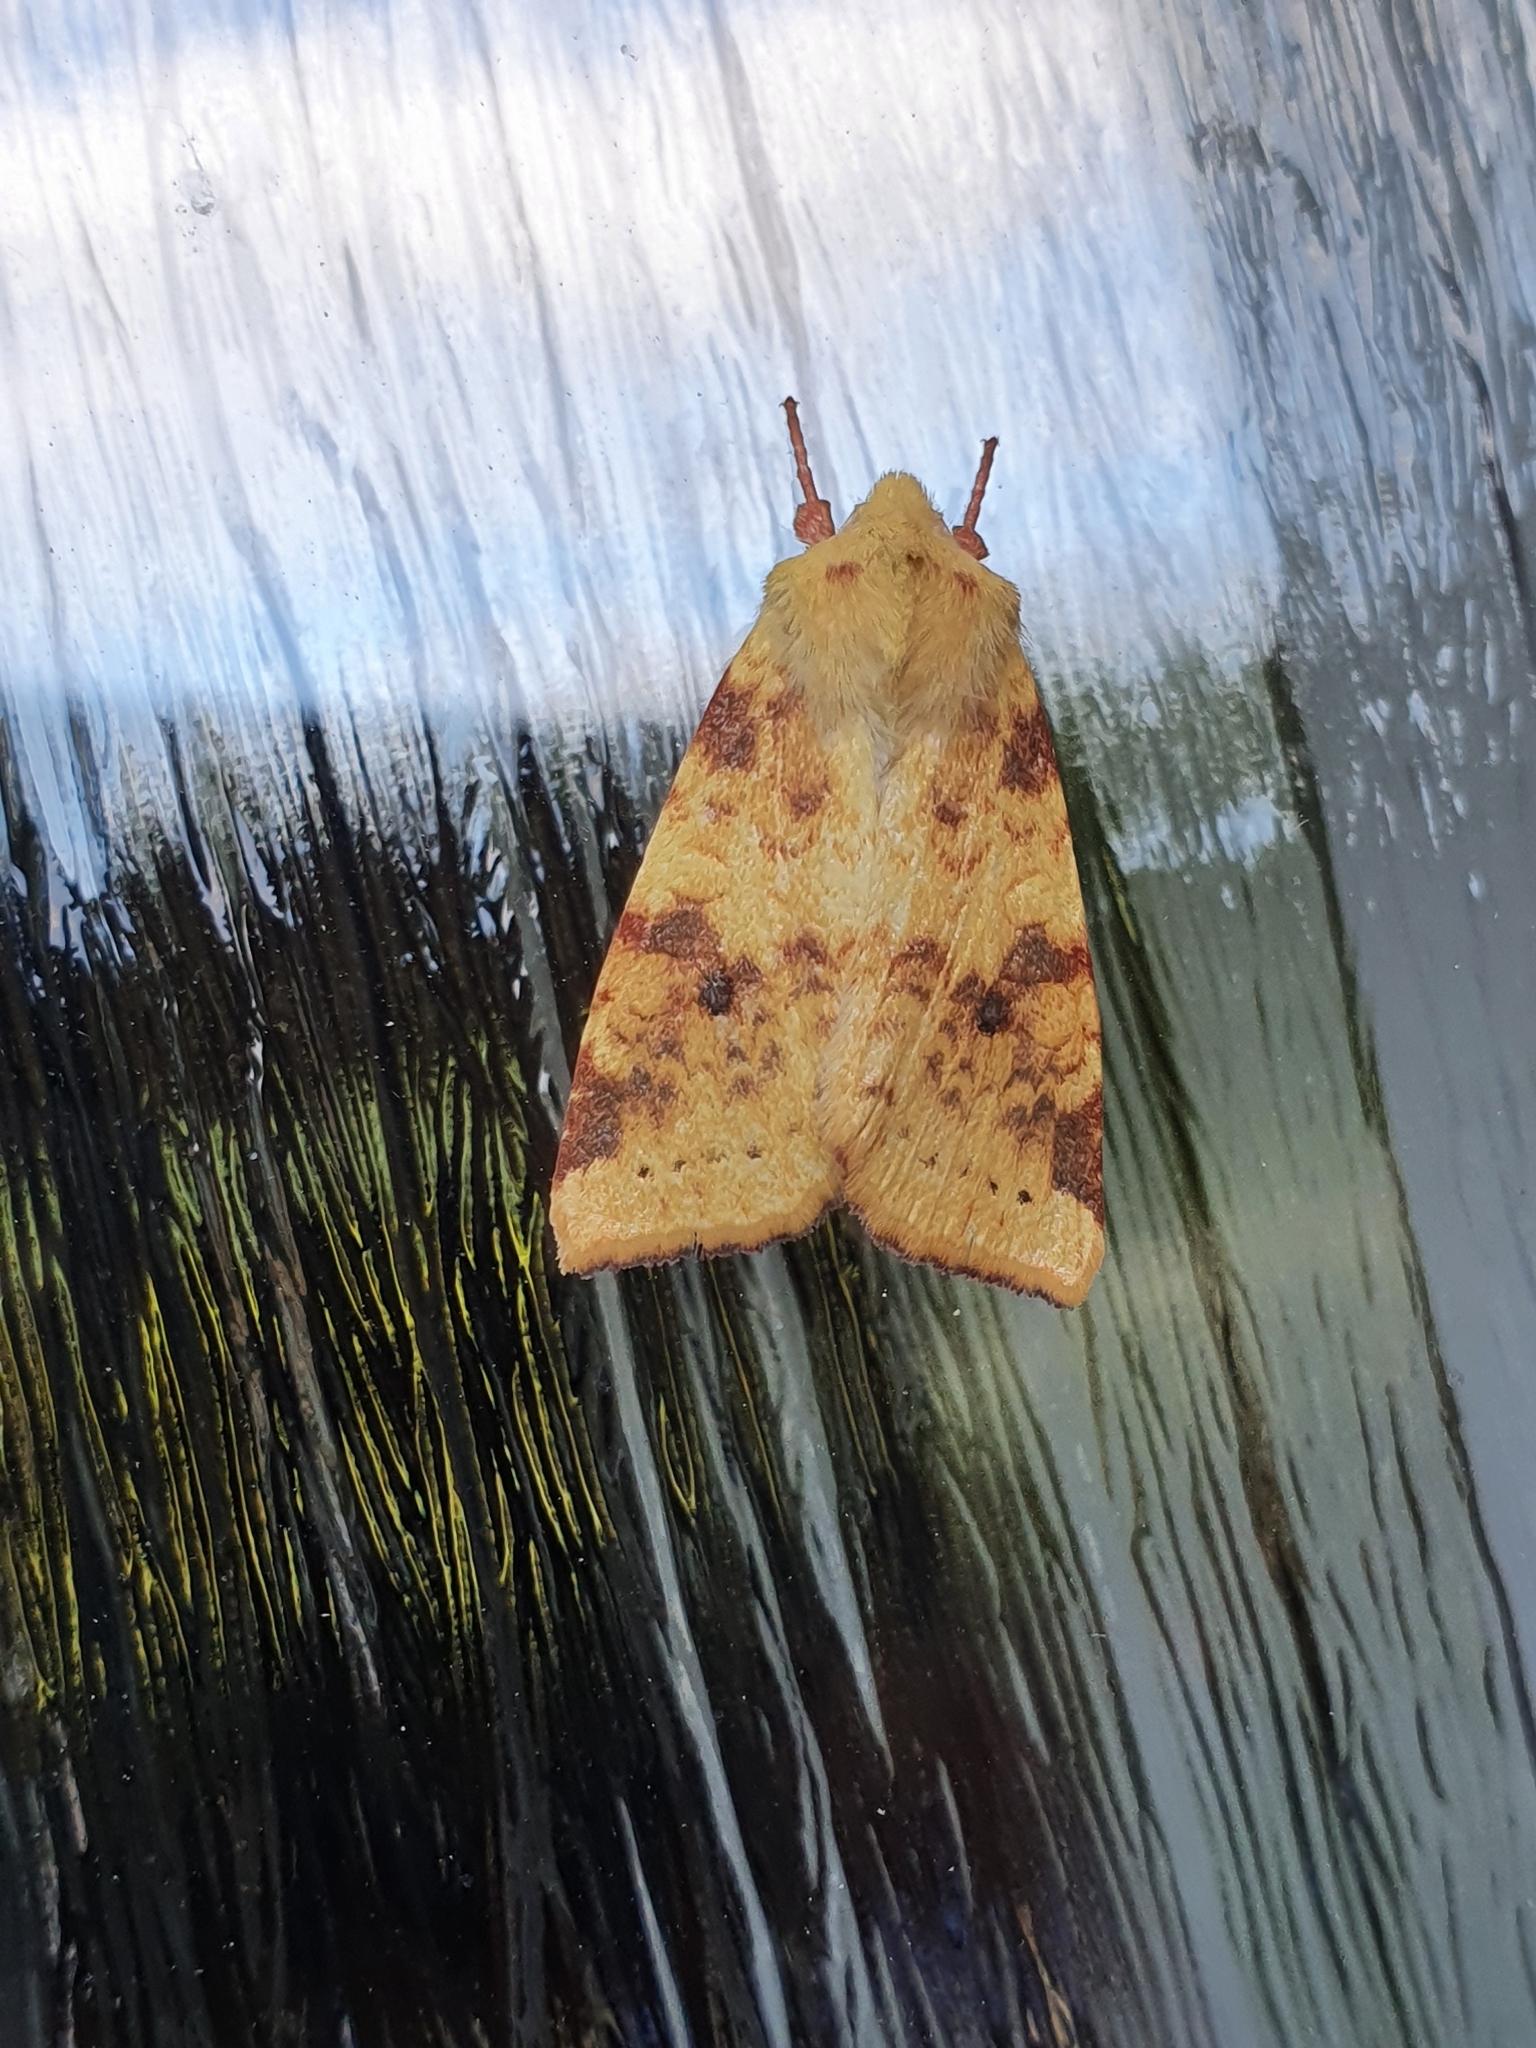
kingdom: Animalia
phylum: Arthropoda
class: Insecta
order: Lepidoptera
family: Noctuidae
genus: Xanthia
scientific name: Xanthia icteritia
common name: The sallow
